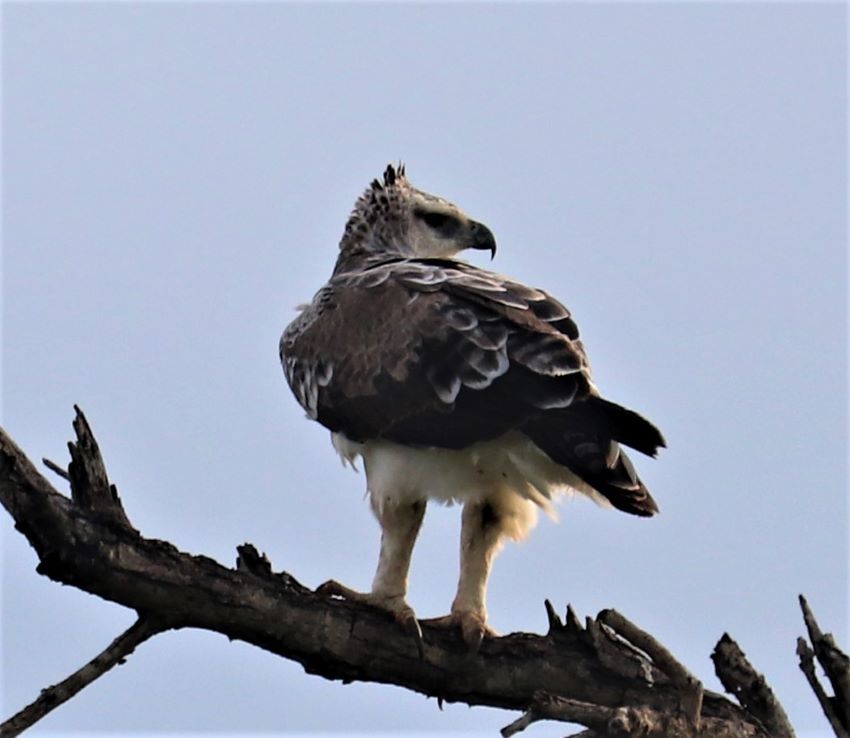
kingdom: Animalia
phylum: Chordata
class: Aves
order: Accipitriformes
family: Accipitridae
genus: Polemaetus
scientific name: Polemaetus bellicosus
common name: Martial eagle
